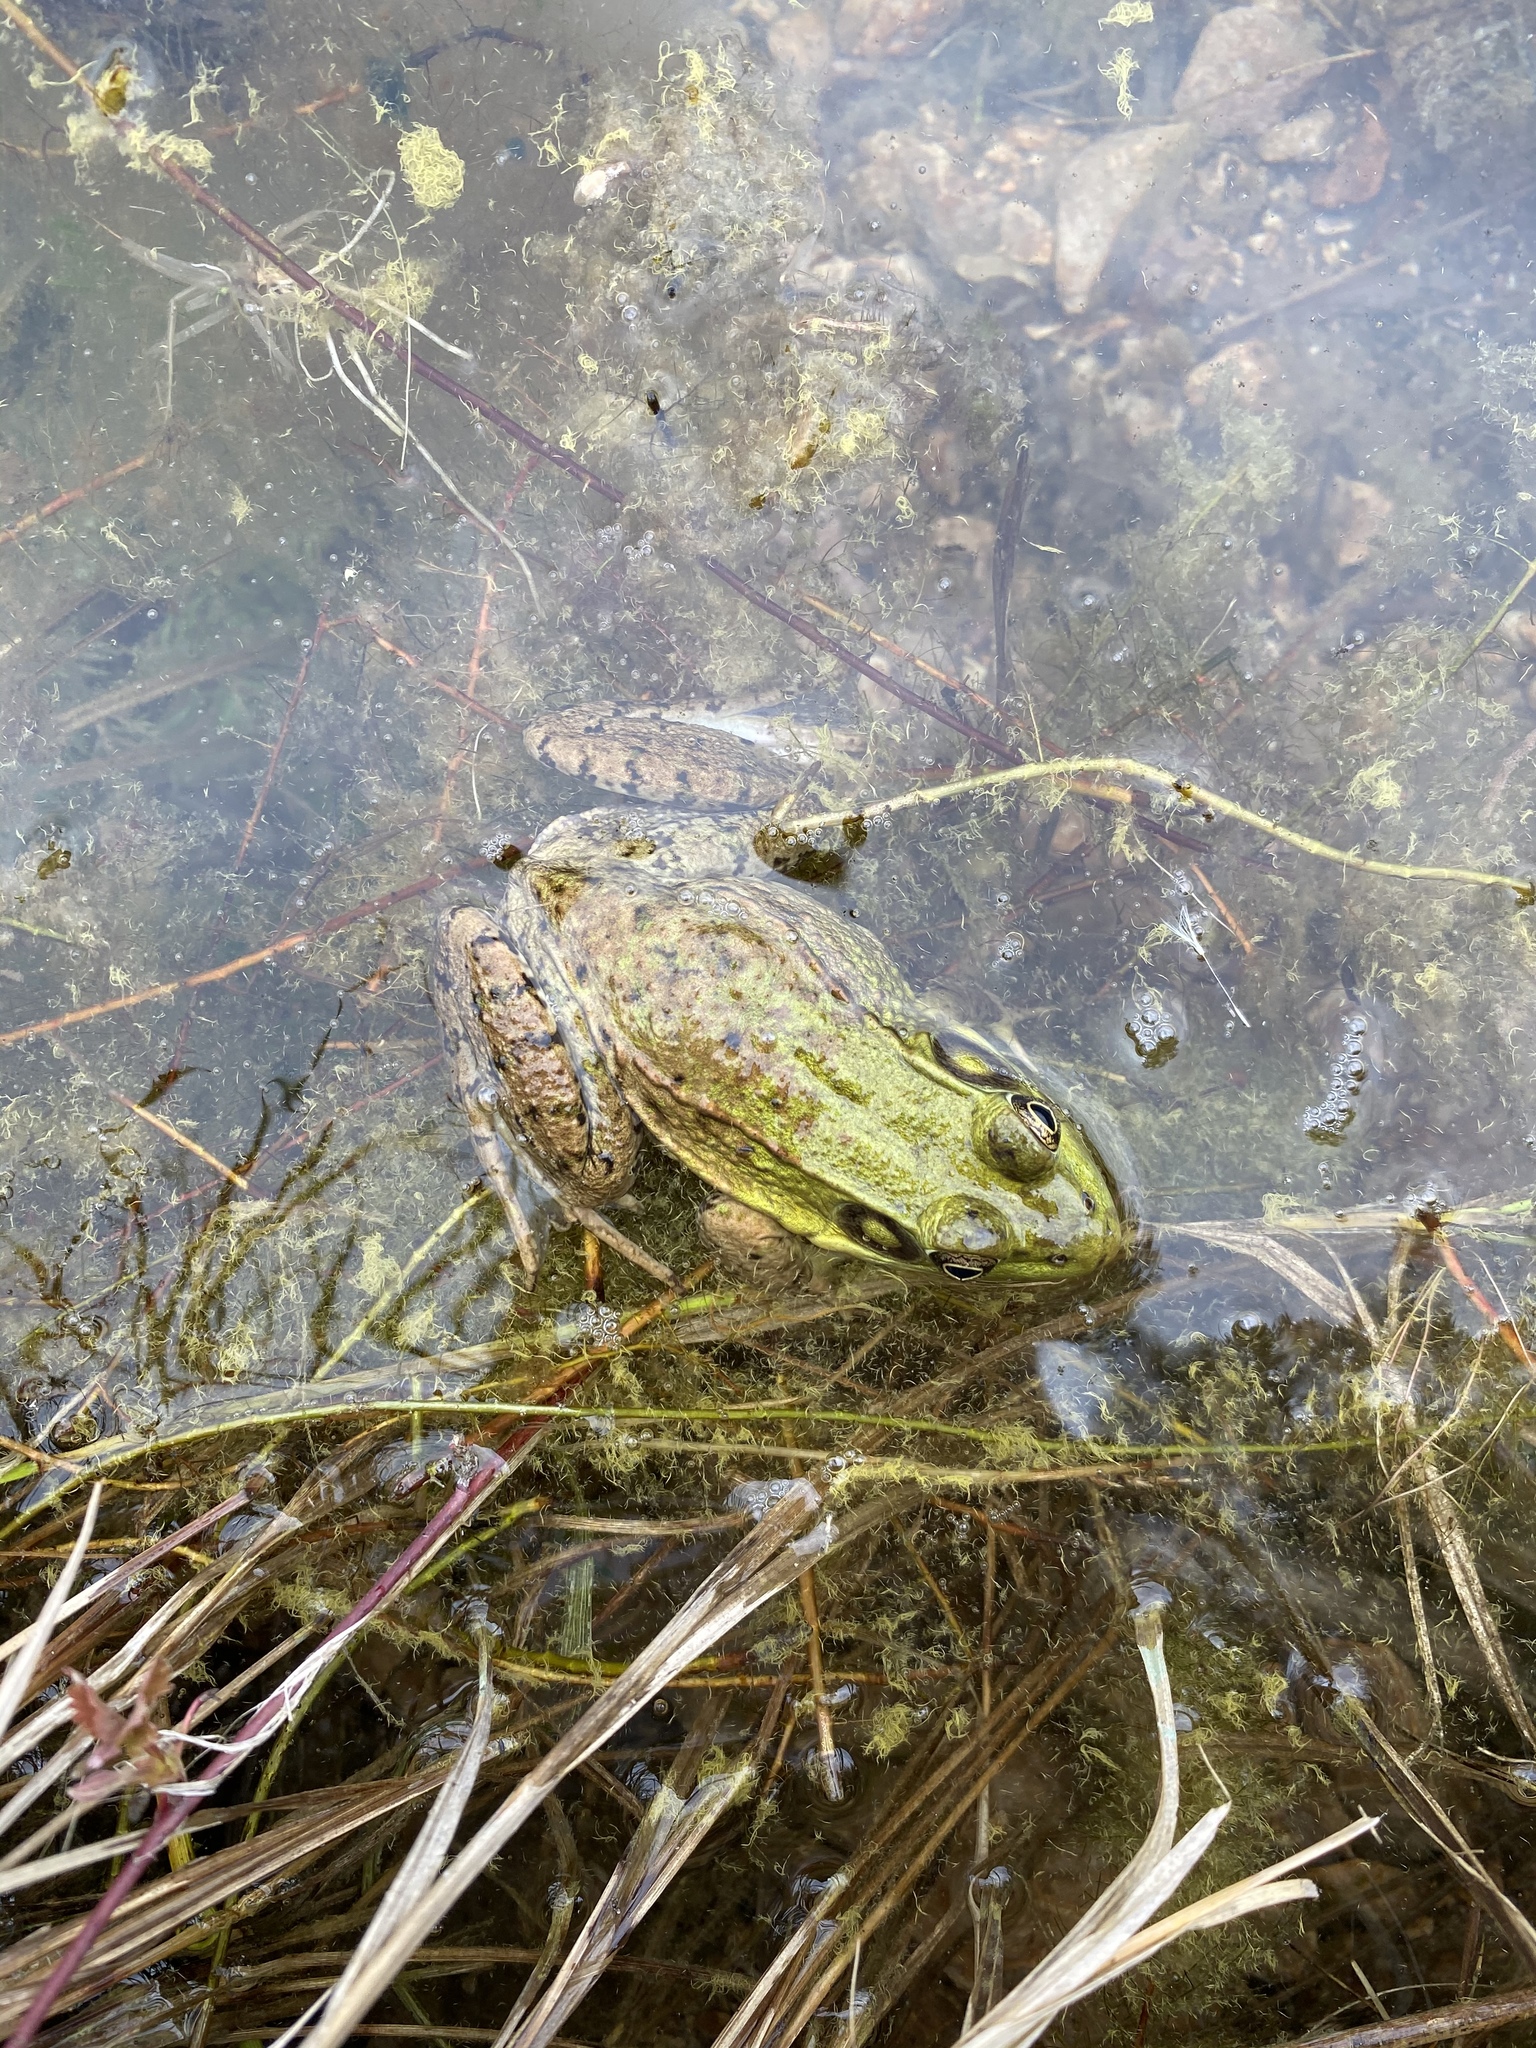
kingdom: Animalia
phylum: Chordata
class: Amphibia
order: Anura
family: Ranidae
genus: Lithobates
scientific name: Lithobates clamitans
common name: Green frog
